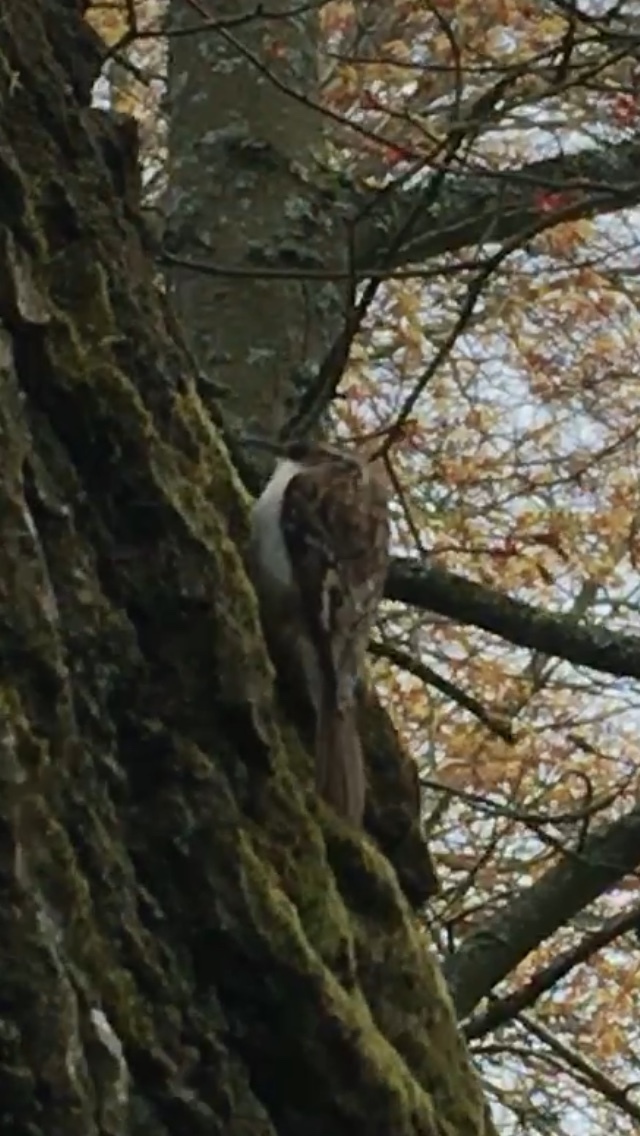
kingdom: Animalia
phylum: Chordata
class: Aves
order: Passeriformes
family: Certhiidae
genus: Certhia
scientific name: Certhia familiaris
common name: Eurasian treecreeper
